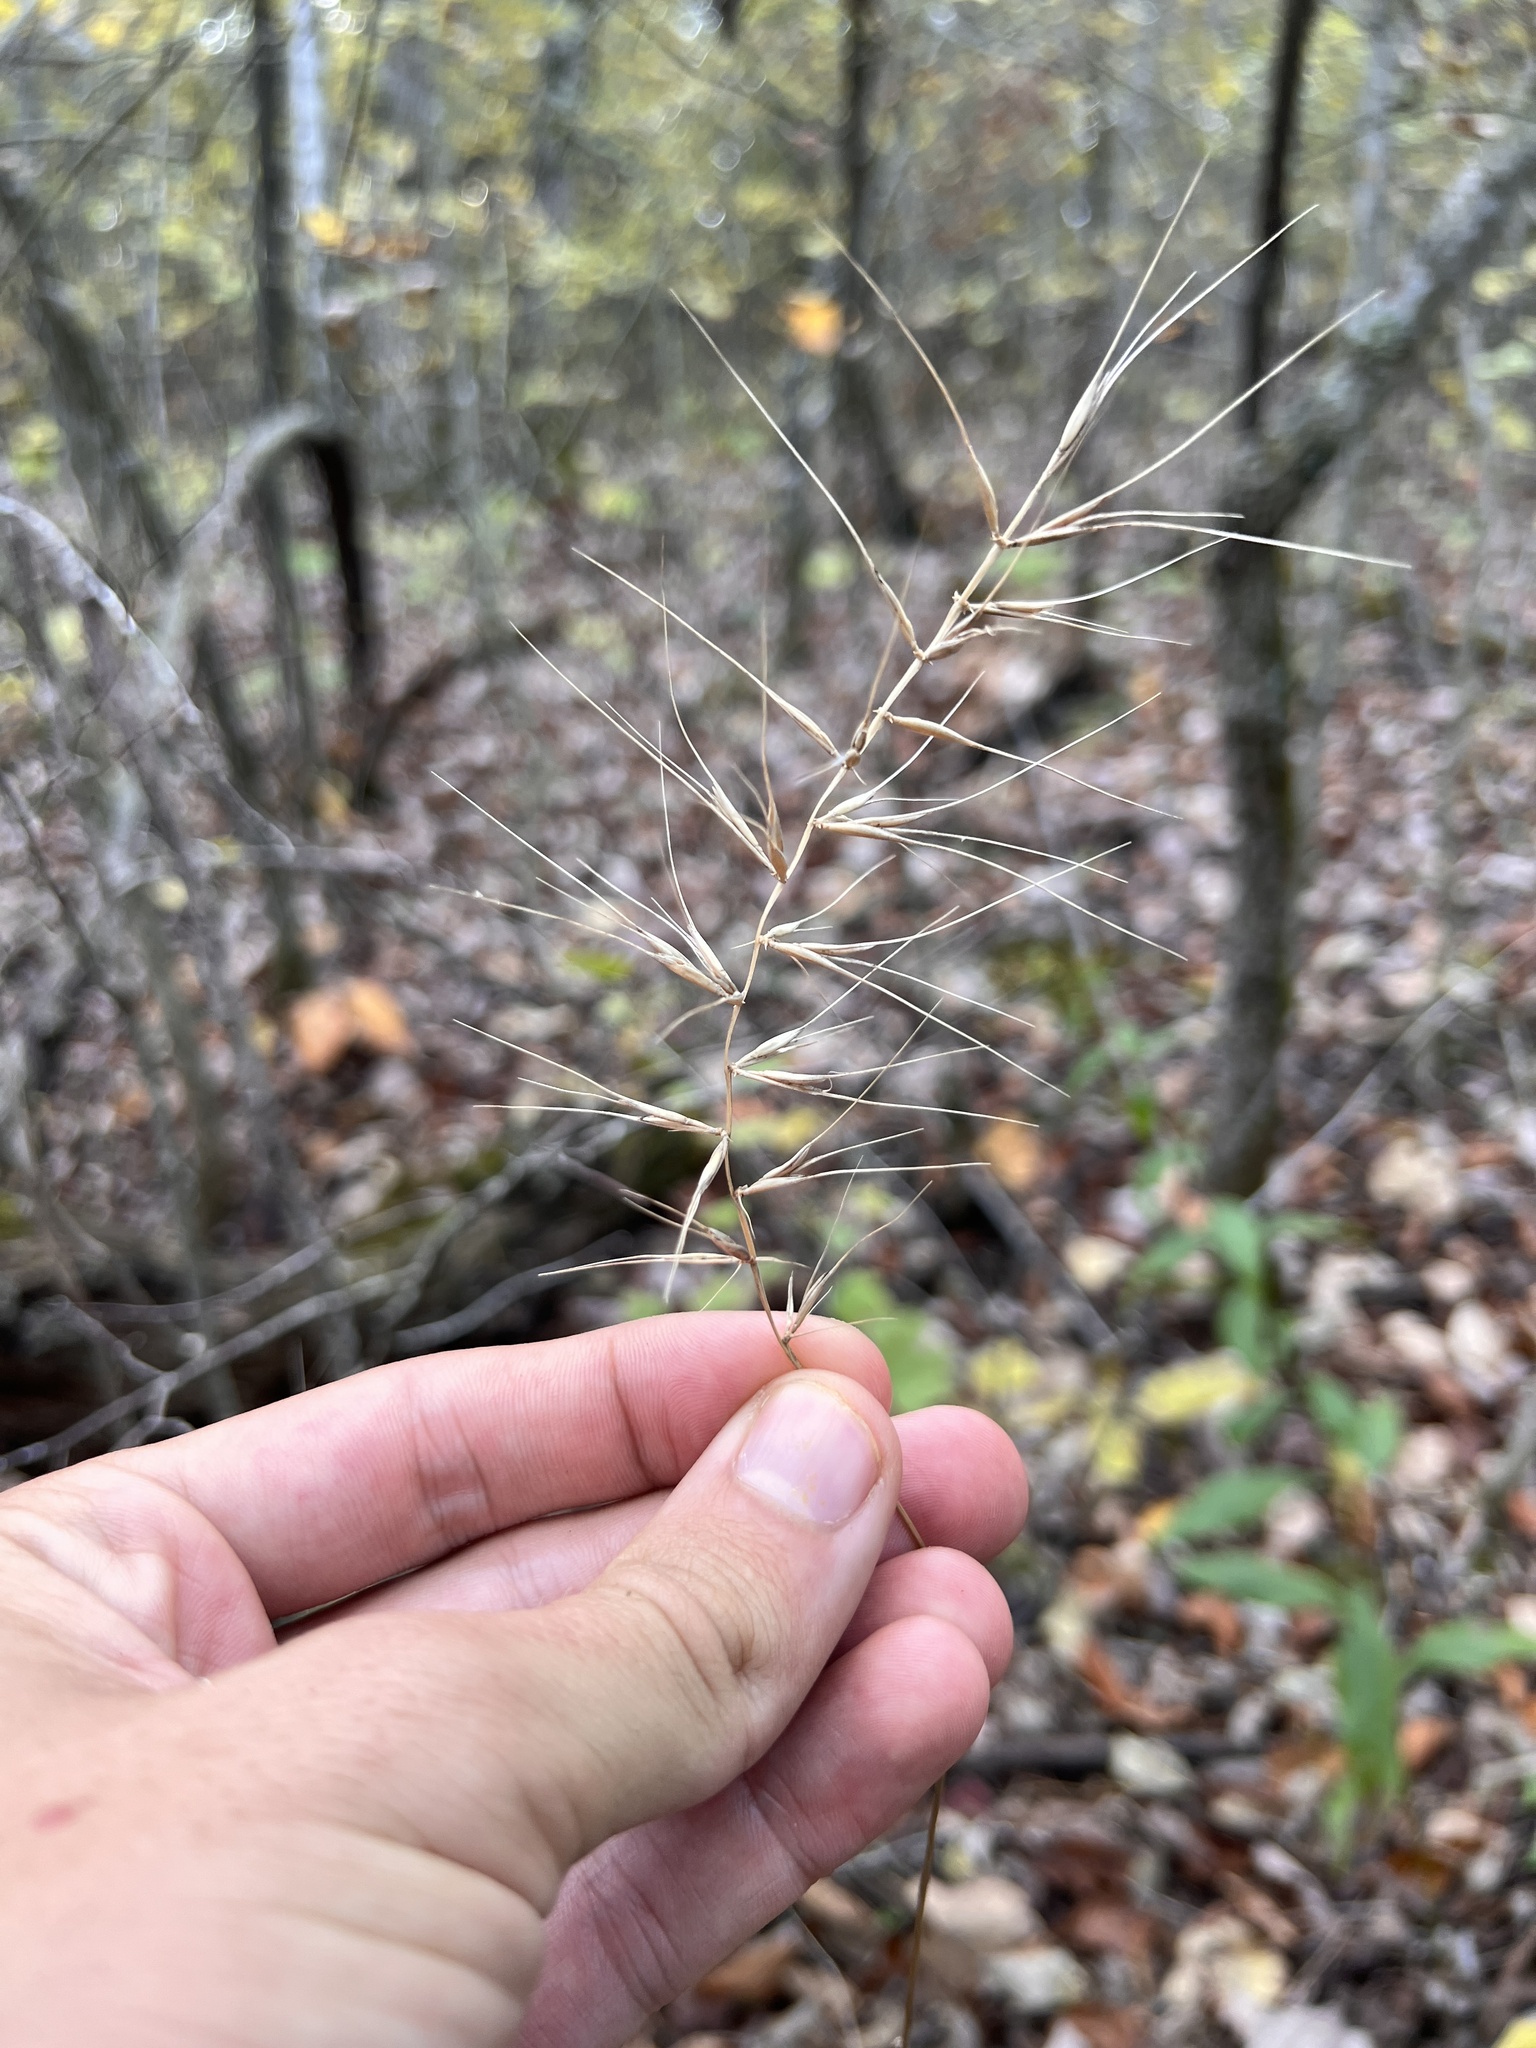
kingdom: Plantae
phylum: Tracheophyta
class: Liliopsida
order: Poales
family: Poaceae
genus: Elymus
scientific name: Elymus hystrix
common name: Bottlebrush grass
